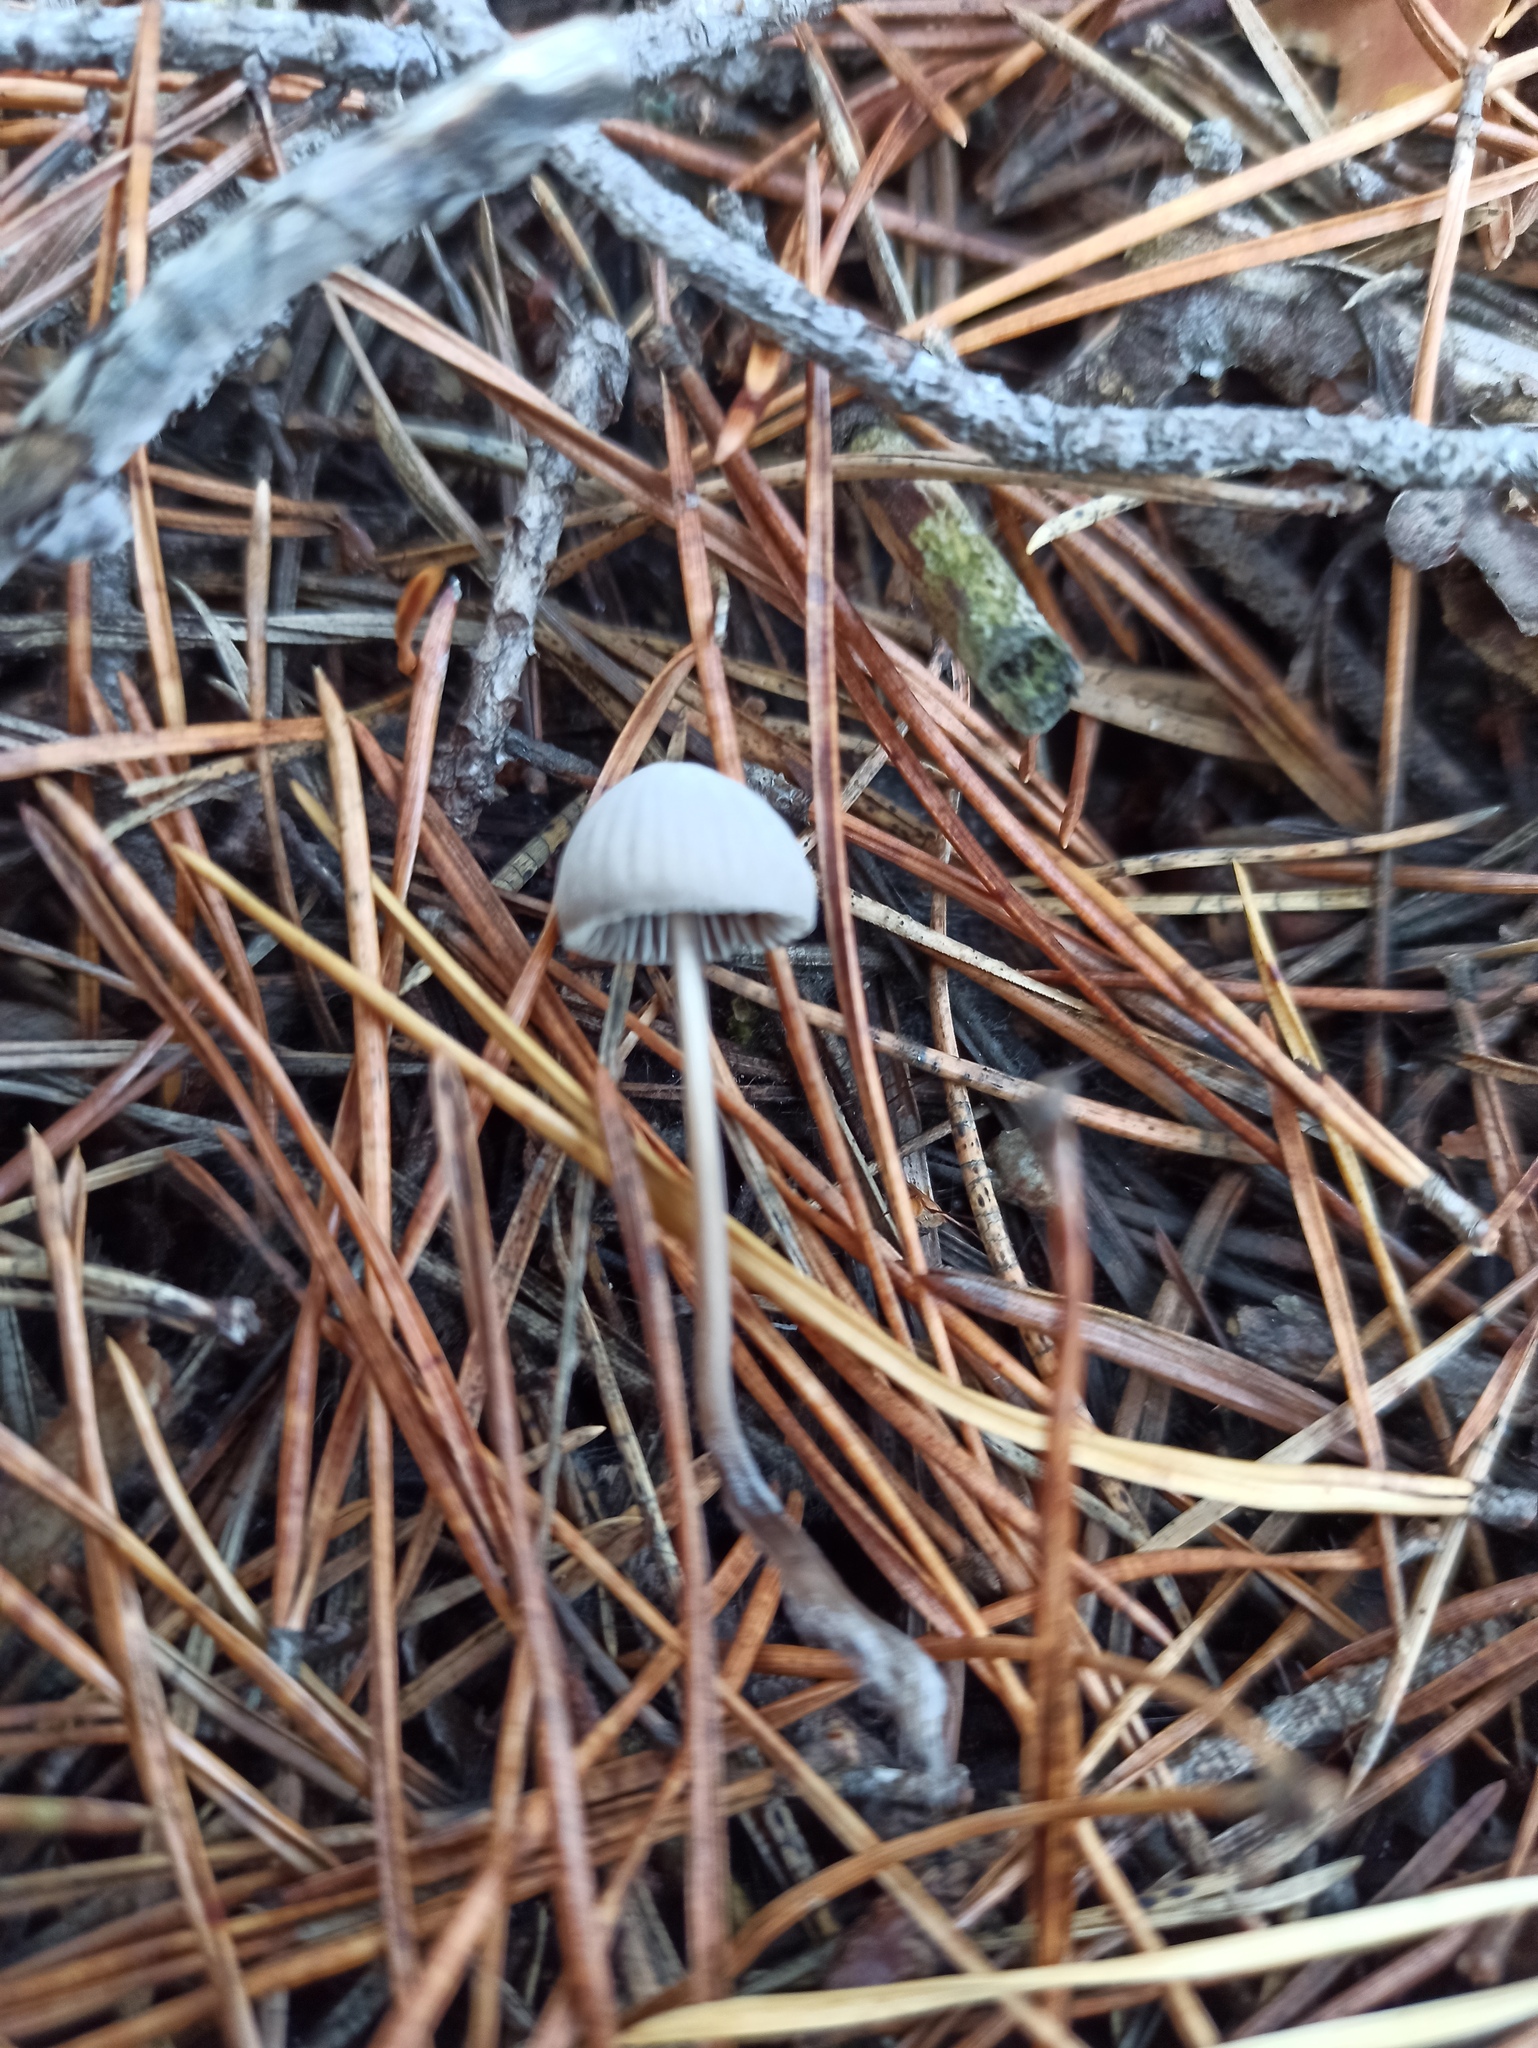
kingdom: Fungi
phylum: Basidiomycota
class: Agaricomycetes
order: Agaricales
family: Mycenaceae
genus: Mycena
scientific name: Mycena capillaripes
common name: Pinkedge bonnet
